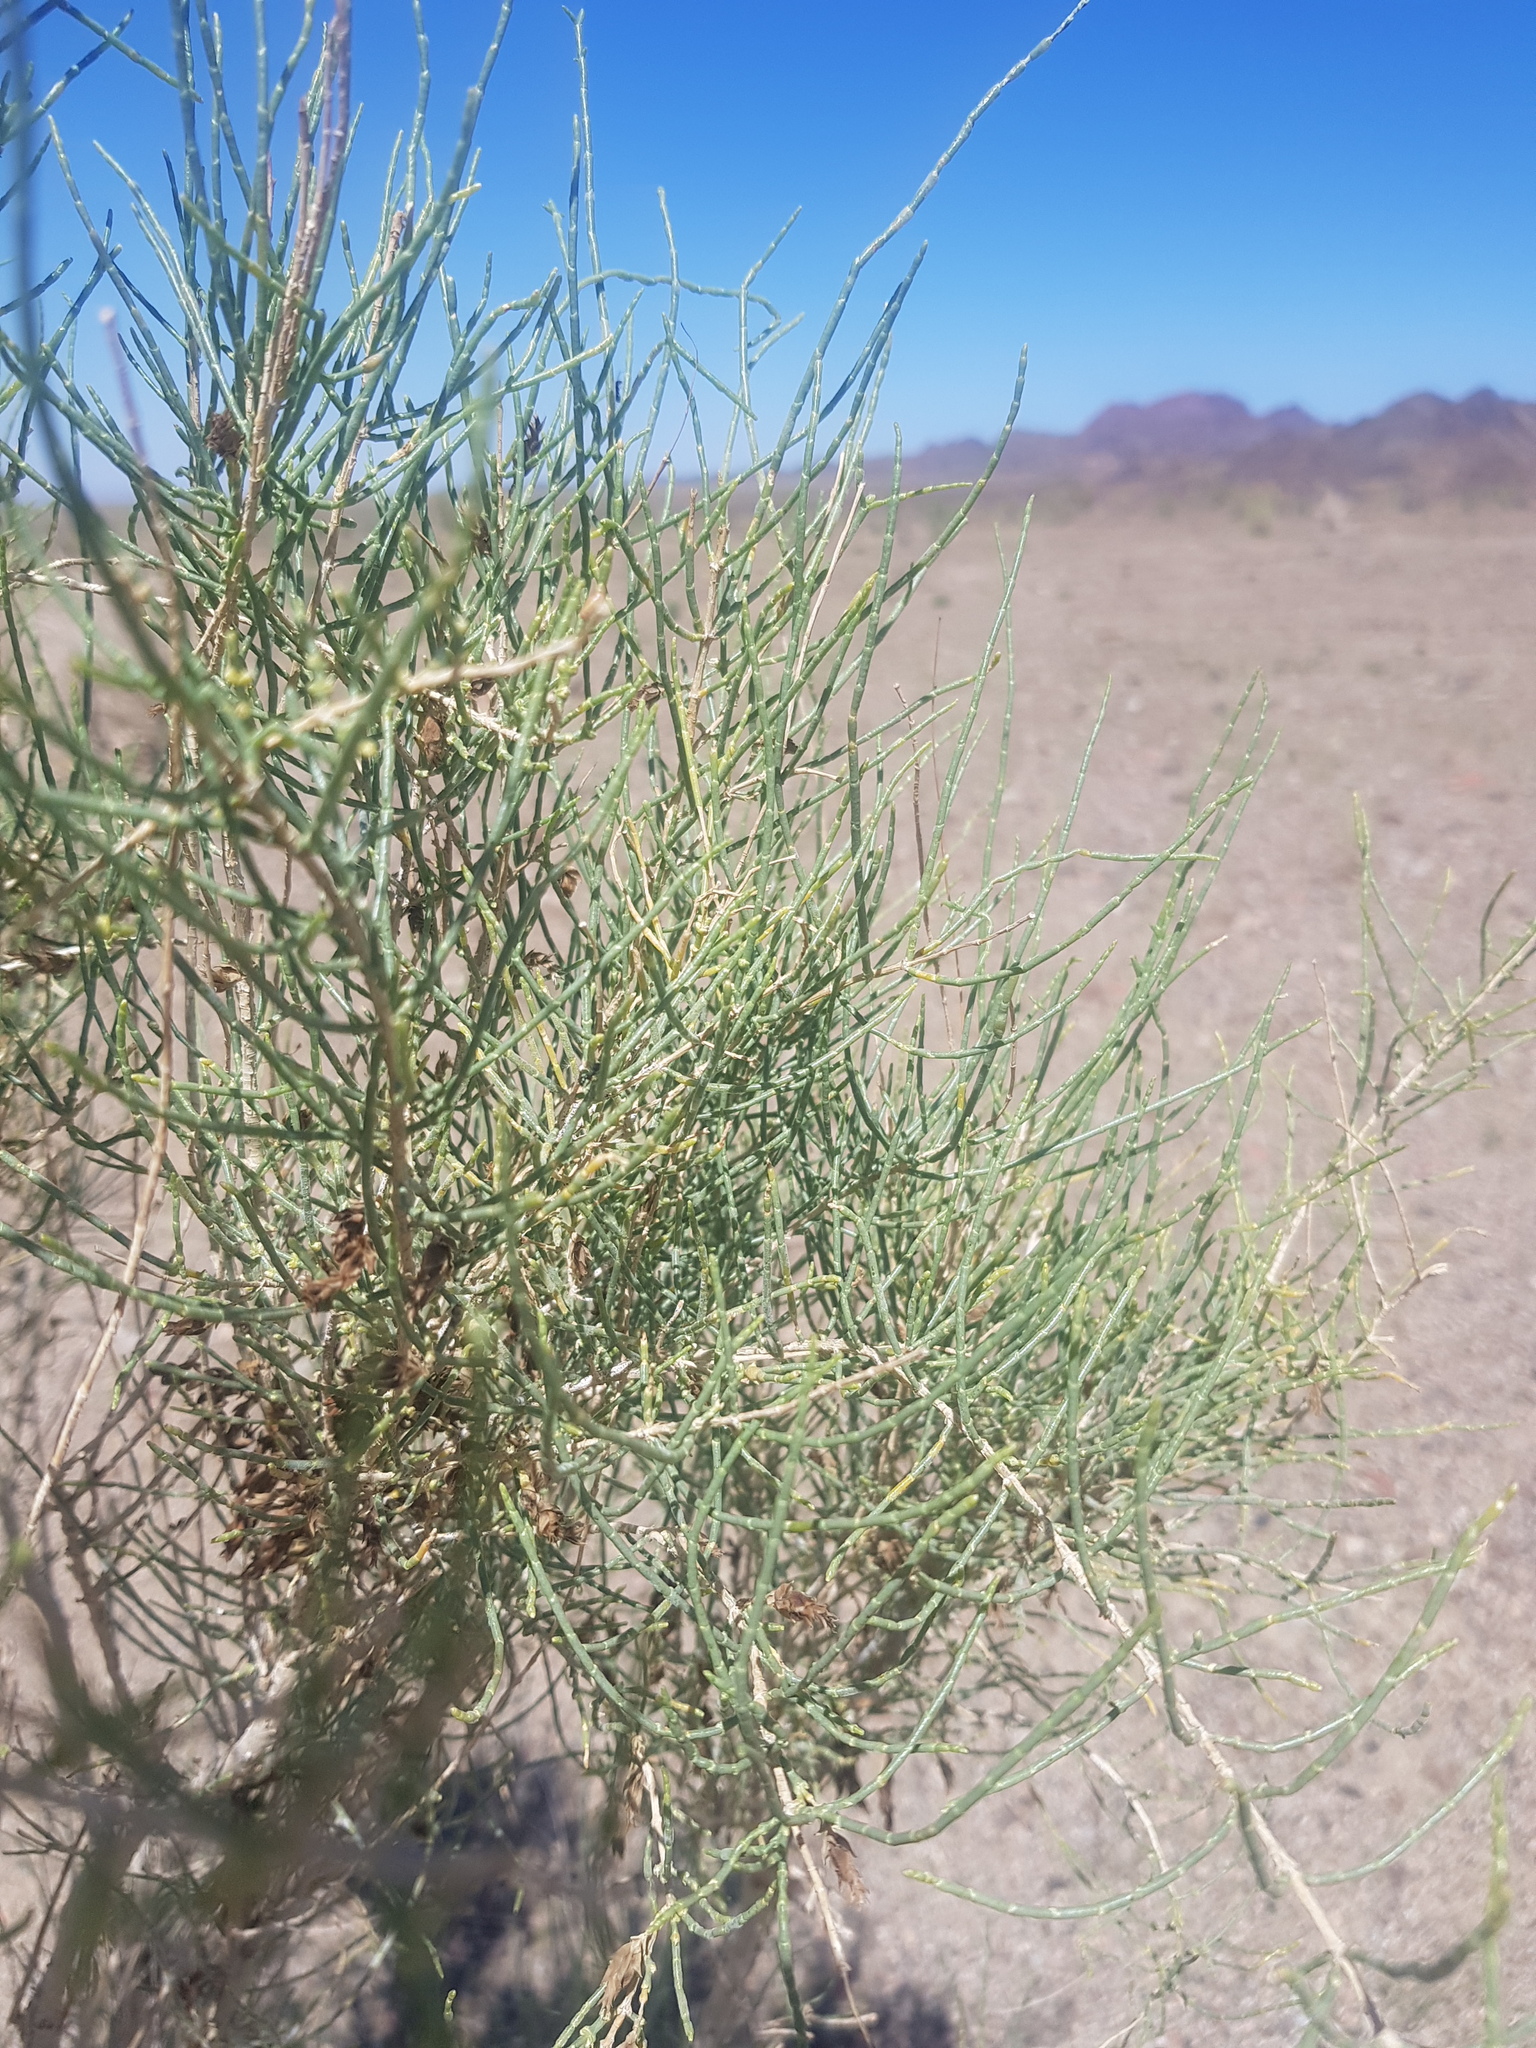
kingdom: Plantae
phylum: Tracheophyta
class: Magnoliopsida
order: Caryophyllales
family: Amaranthaceae
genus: Haloxylon
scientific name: Haloxylon ammodendron
